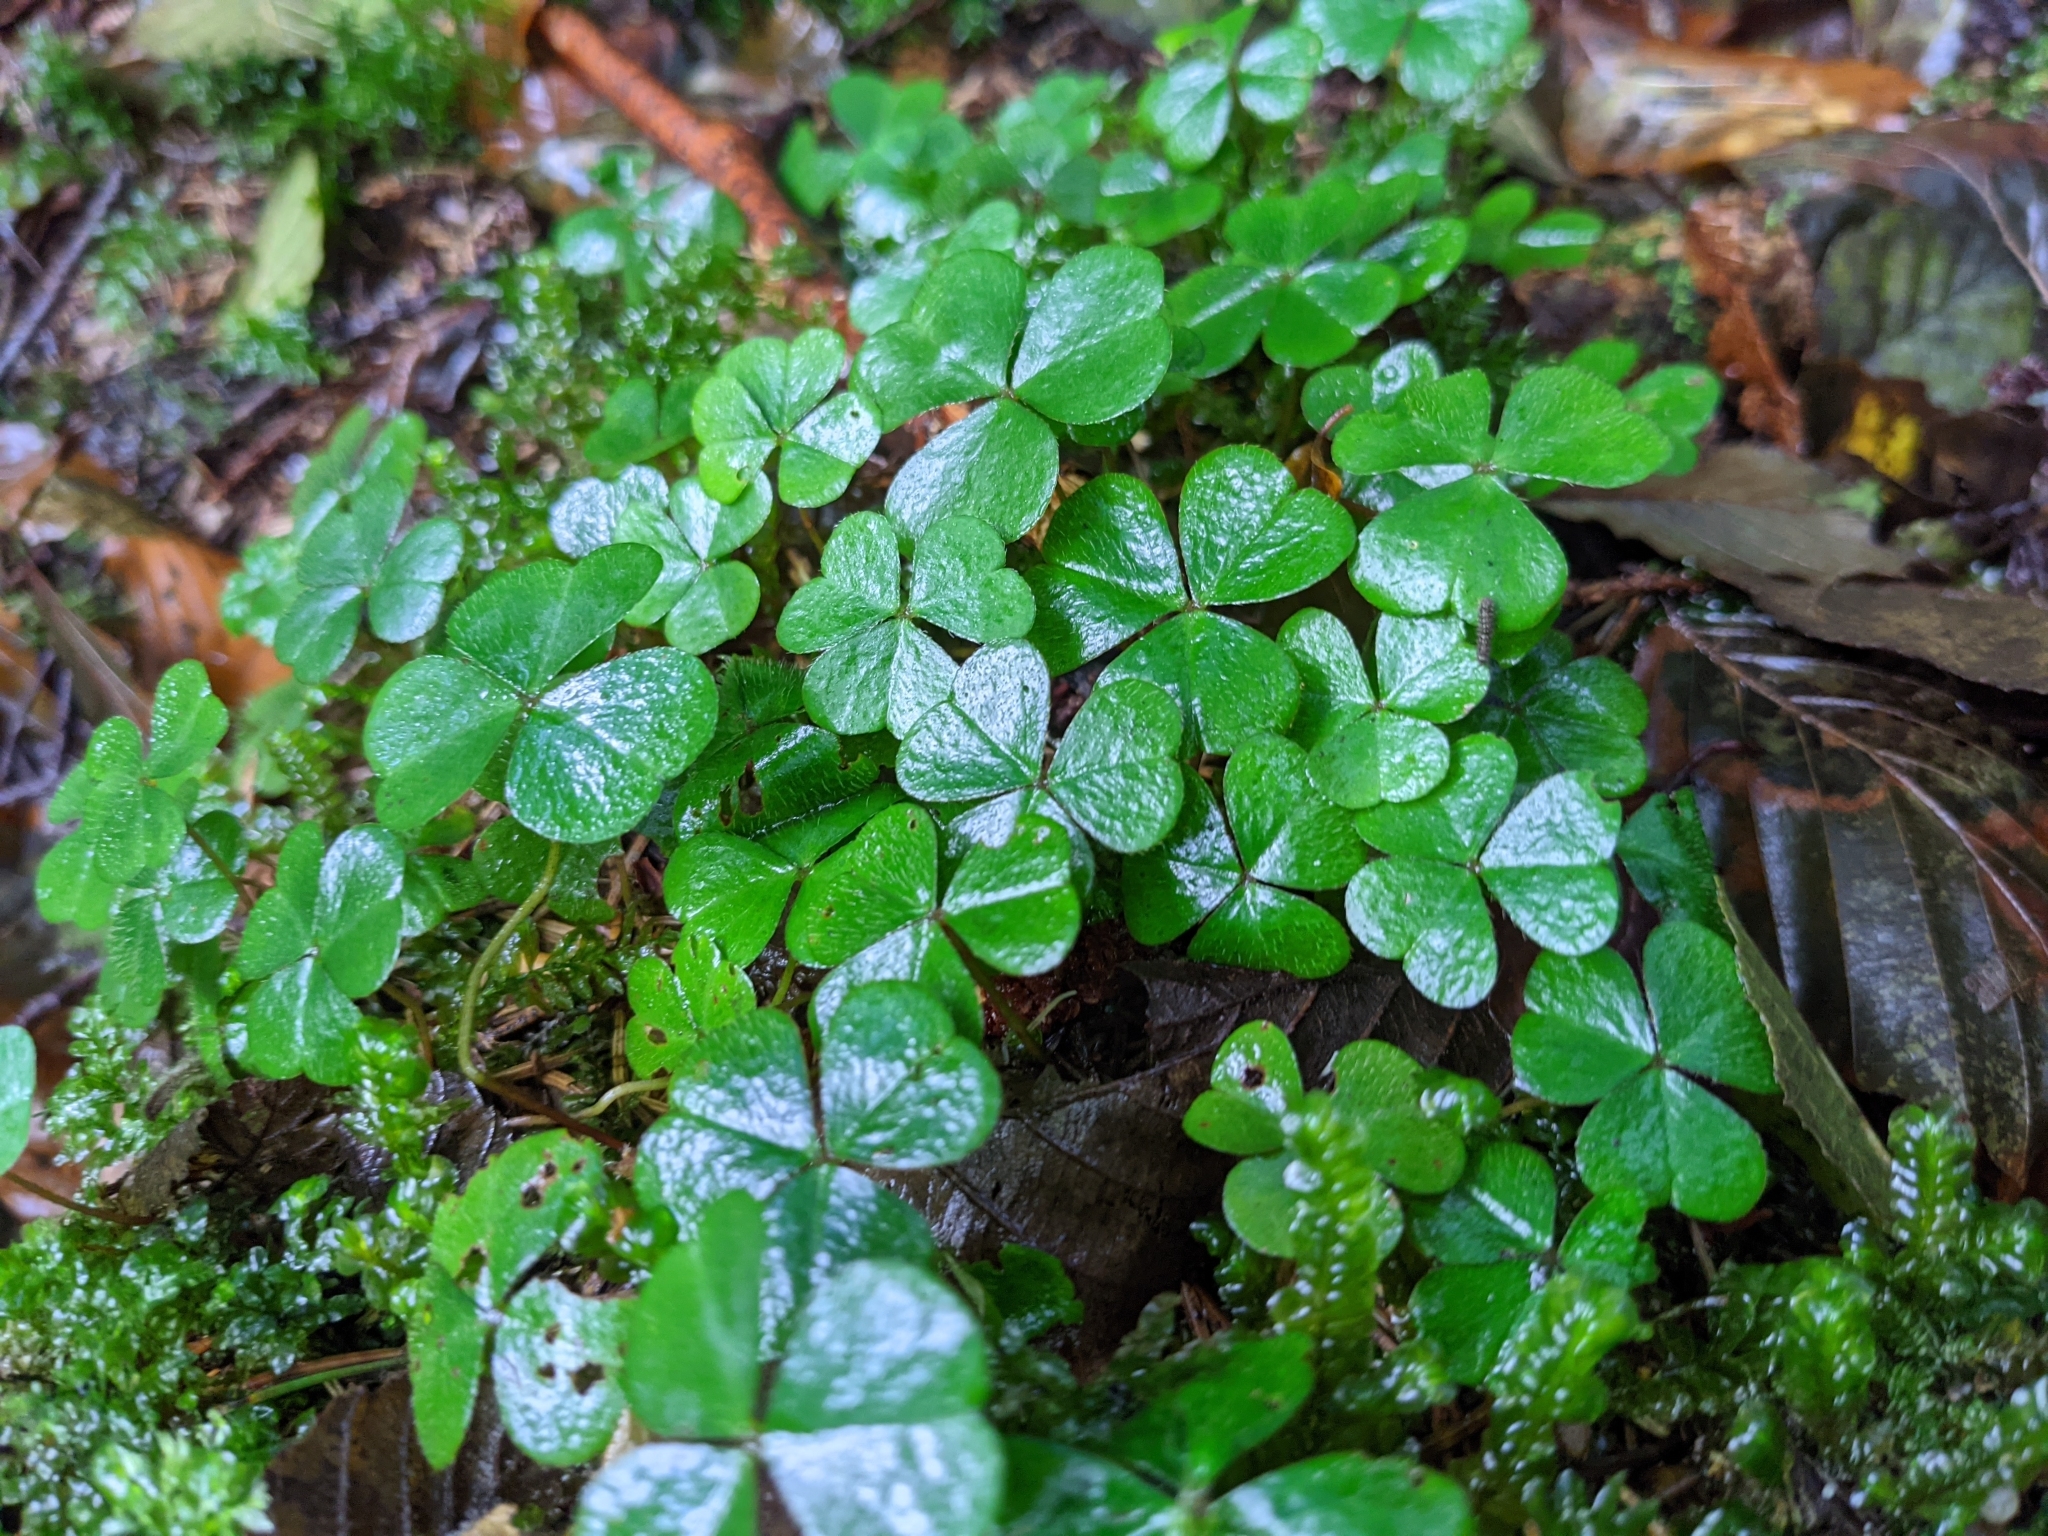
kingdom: Plantae
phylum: Tracheophyta
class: Magnoliopsida
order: Oxalidales
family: Oxalidaceae
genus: Oxalis
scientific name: Oxalis acetosella
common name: Wood-sorrel
